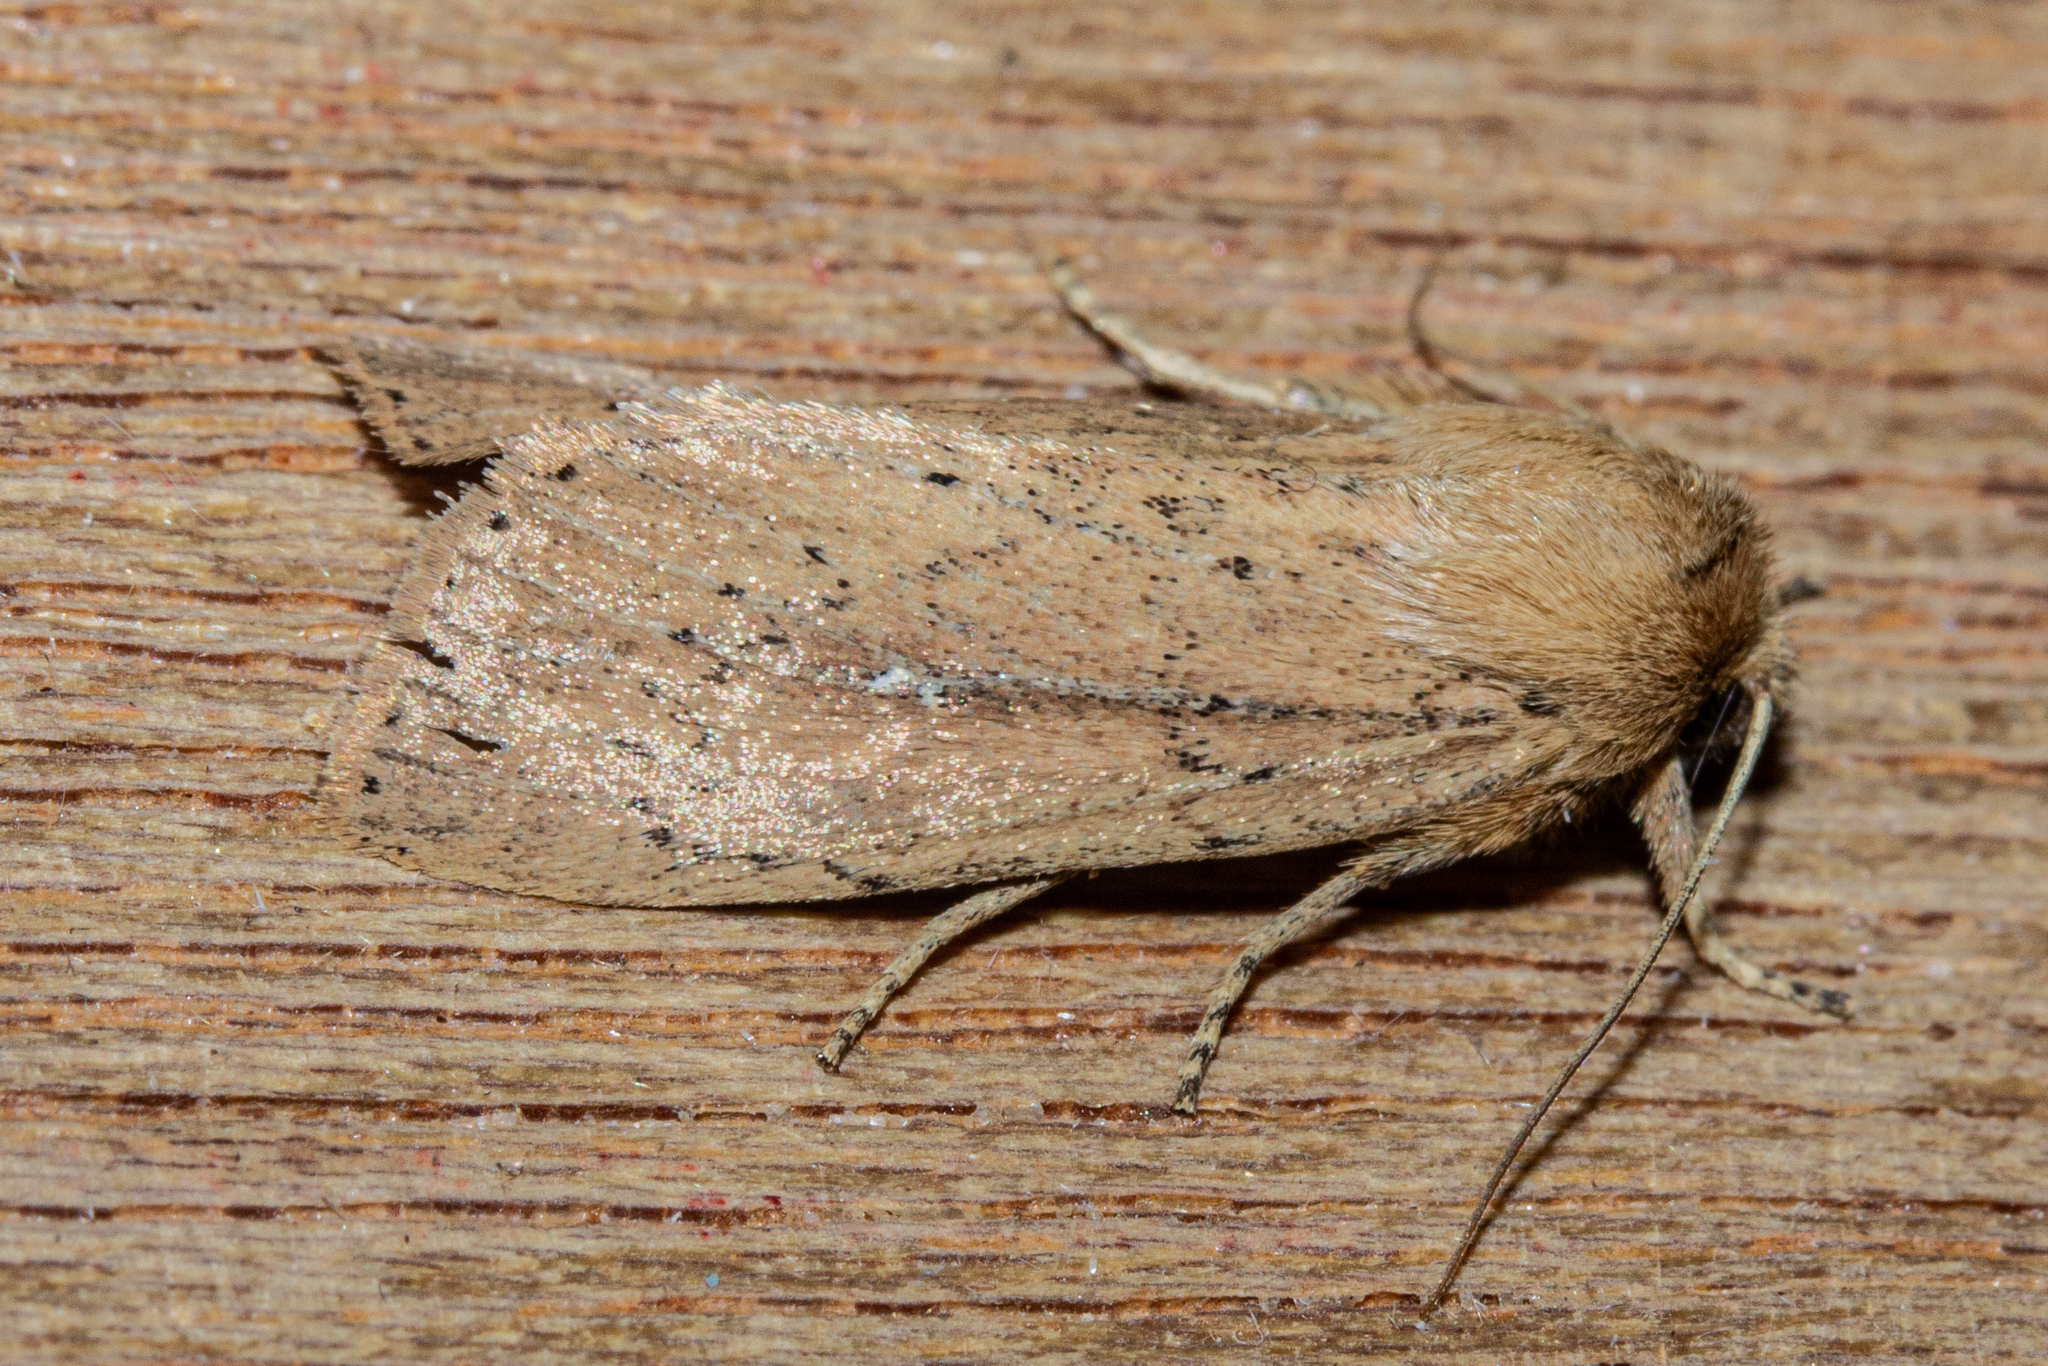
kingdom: Animalia
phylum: Arthropoda
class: Insecta
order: Lepidoptera
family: Noctuidae
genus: Ichneutica
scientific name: Ichneutica
